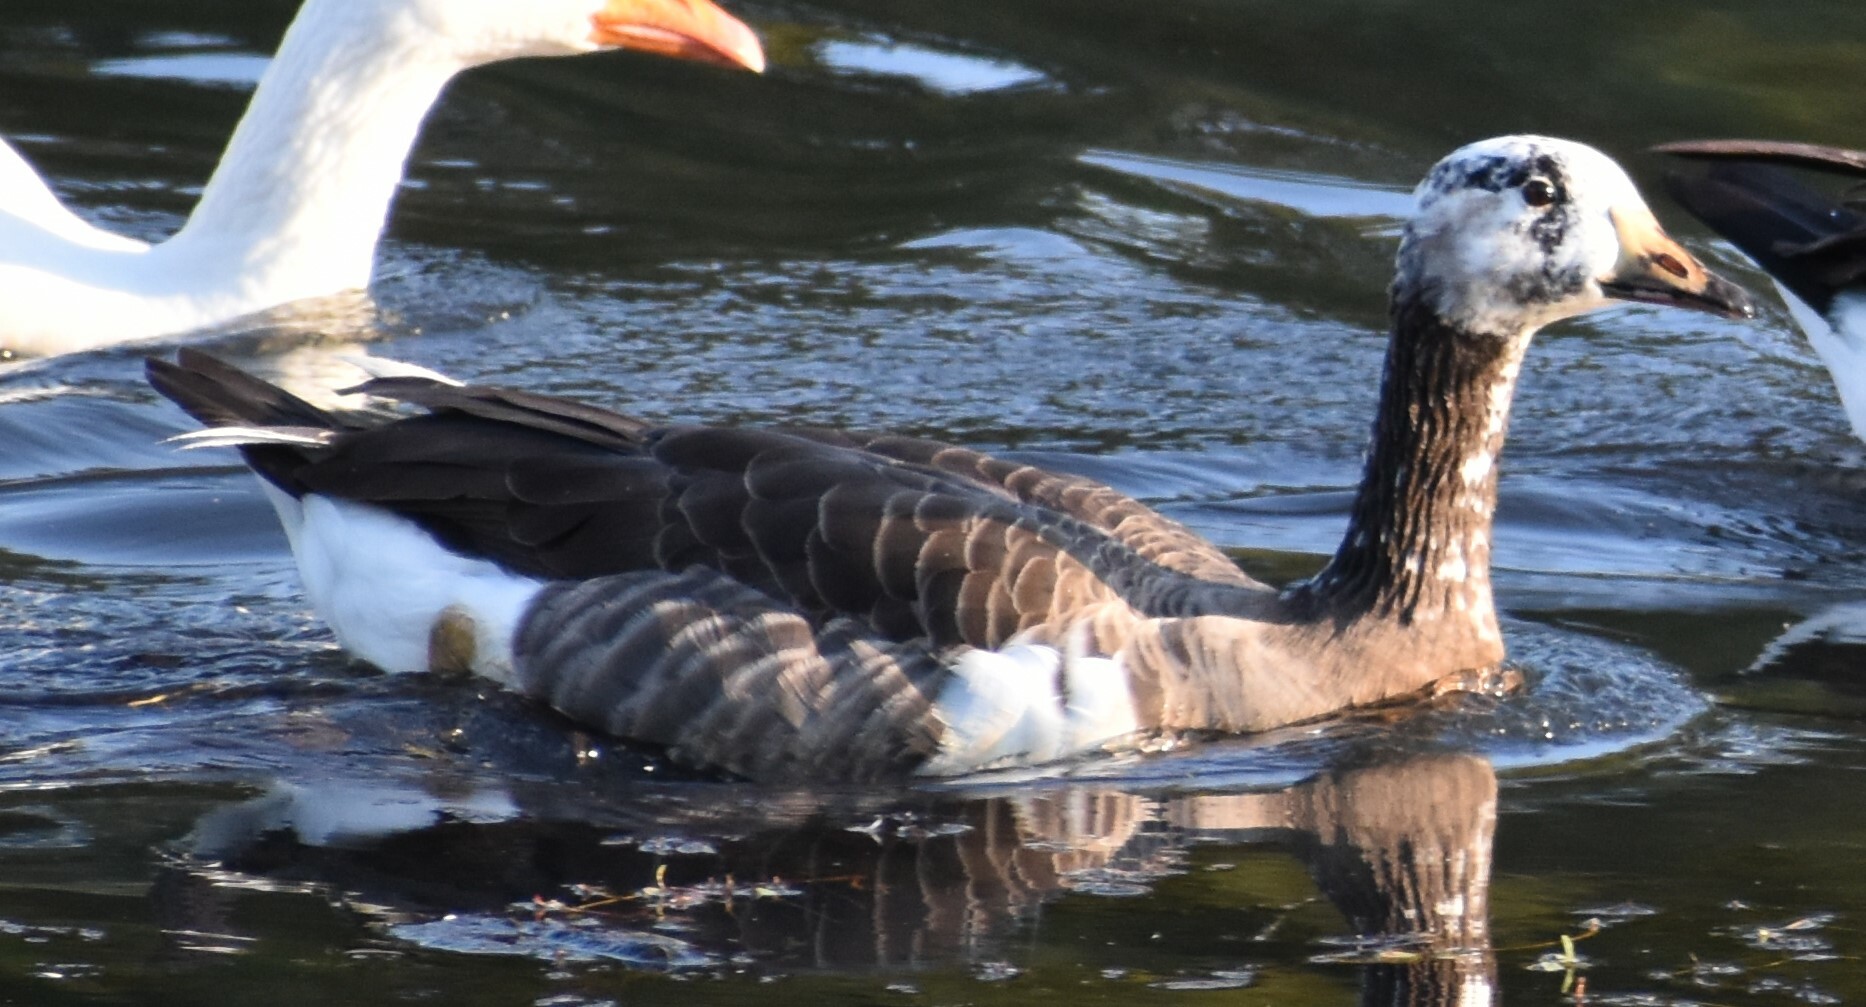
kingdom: Animalia
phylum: Chordata
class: Aves
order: Anseriformes
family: Anatidae
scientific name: Anatidae
